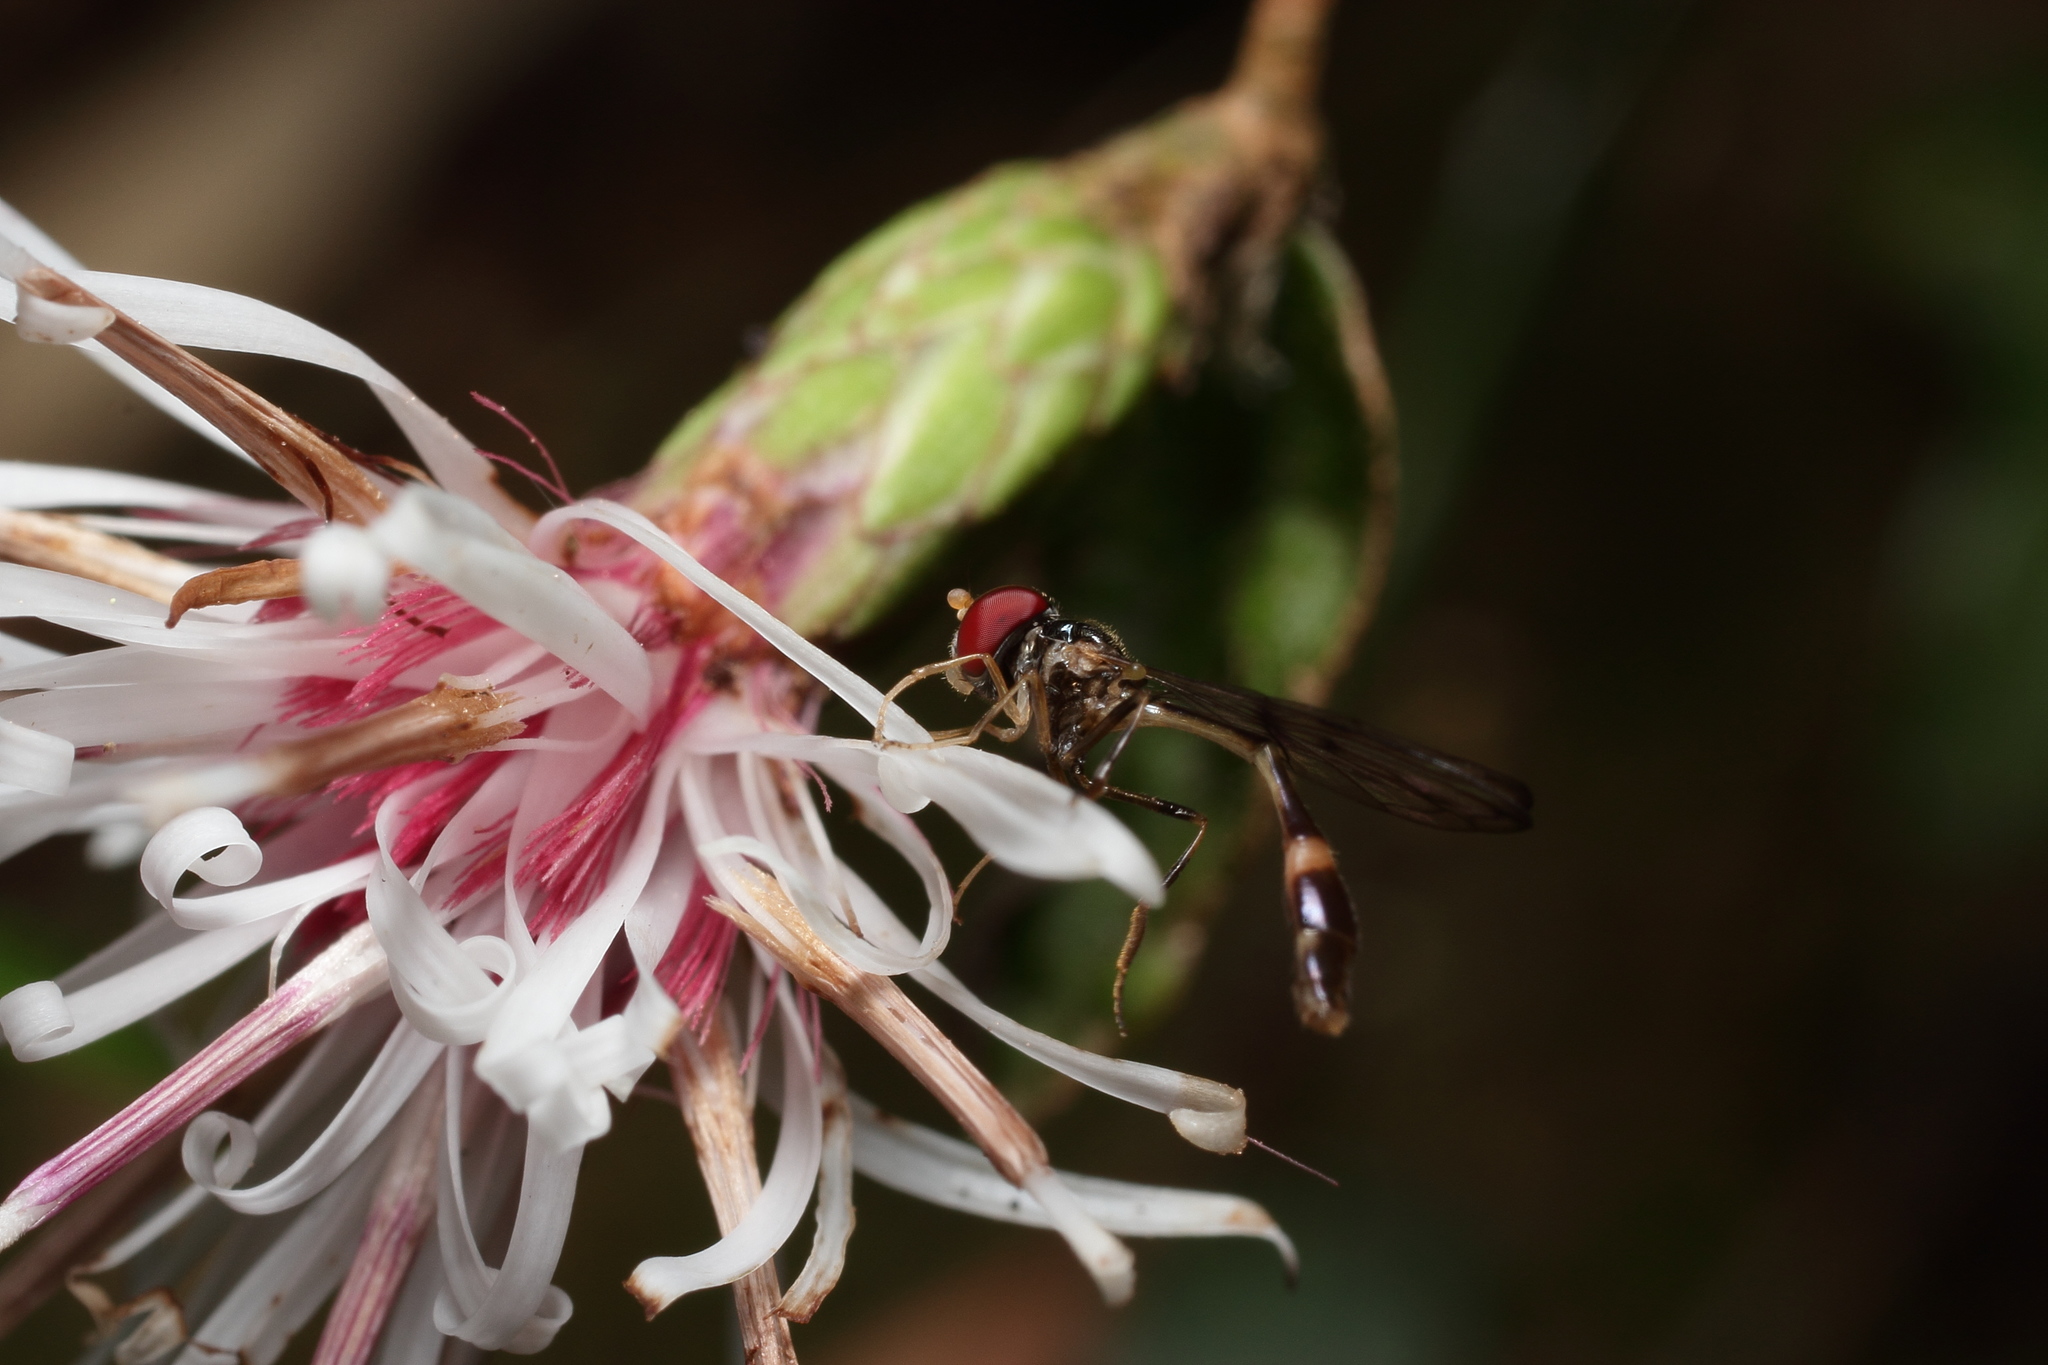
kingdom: Animalia
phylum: Arthropoda
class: Insecta
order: Diptera
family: Syrphidae
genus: Baccha
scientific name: Baccha maculata
